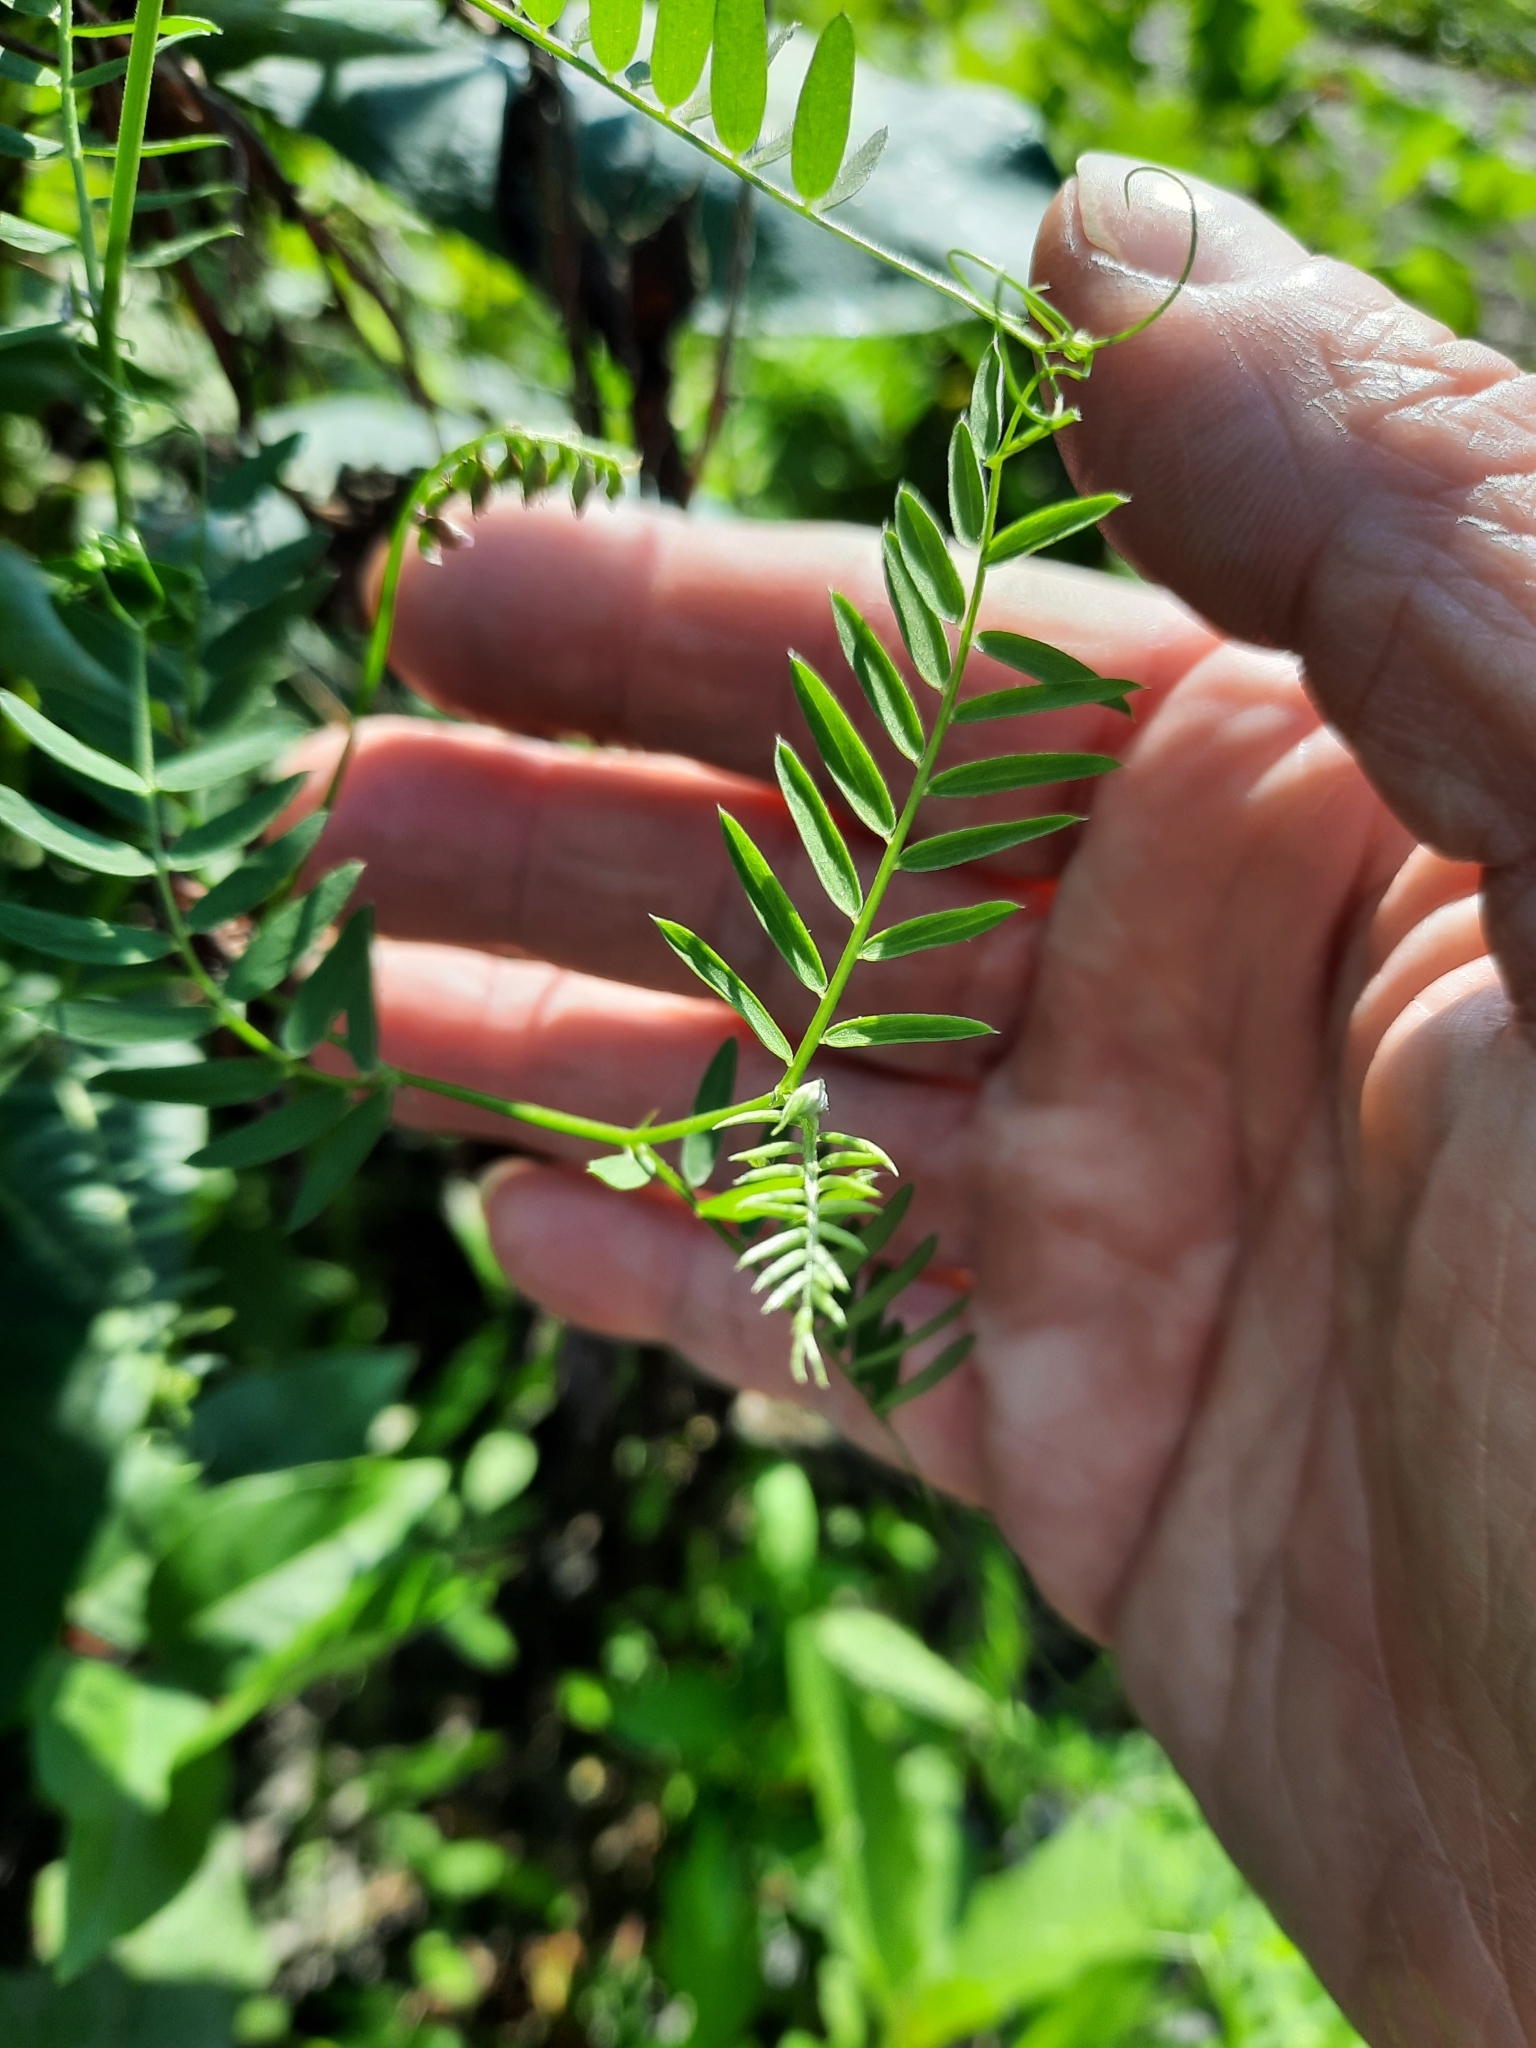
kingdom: Plantae
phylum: Tracheophyta
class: Magnoliopsida
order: Fabales
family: Fabaceae
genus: Vicia
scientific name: Vicia cracca
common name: Bird vetch
